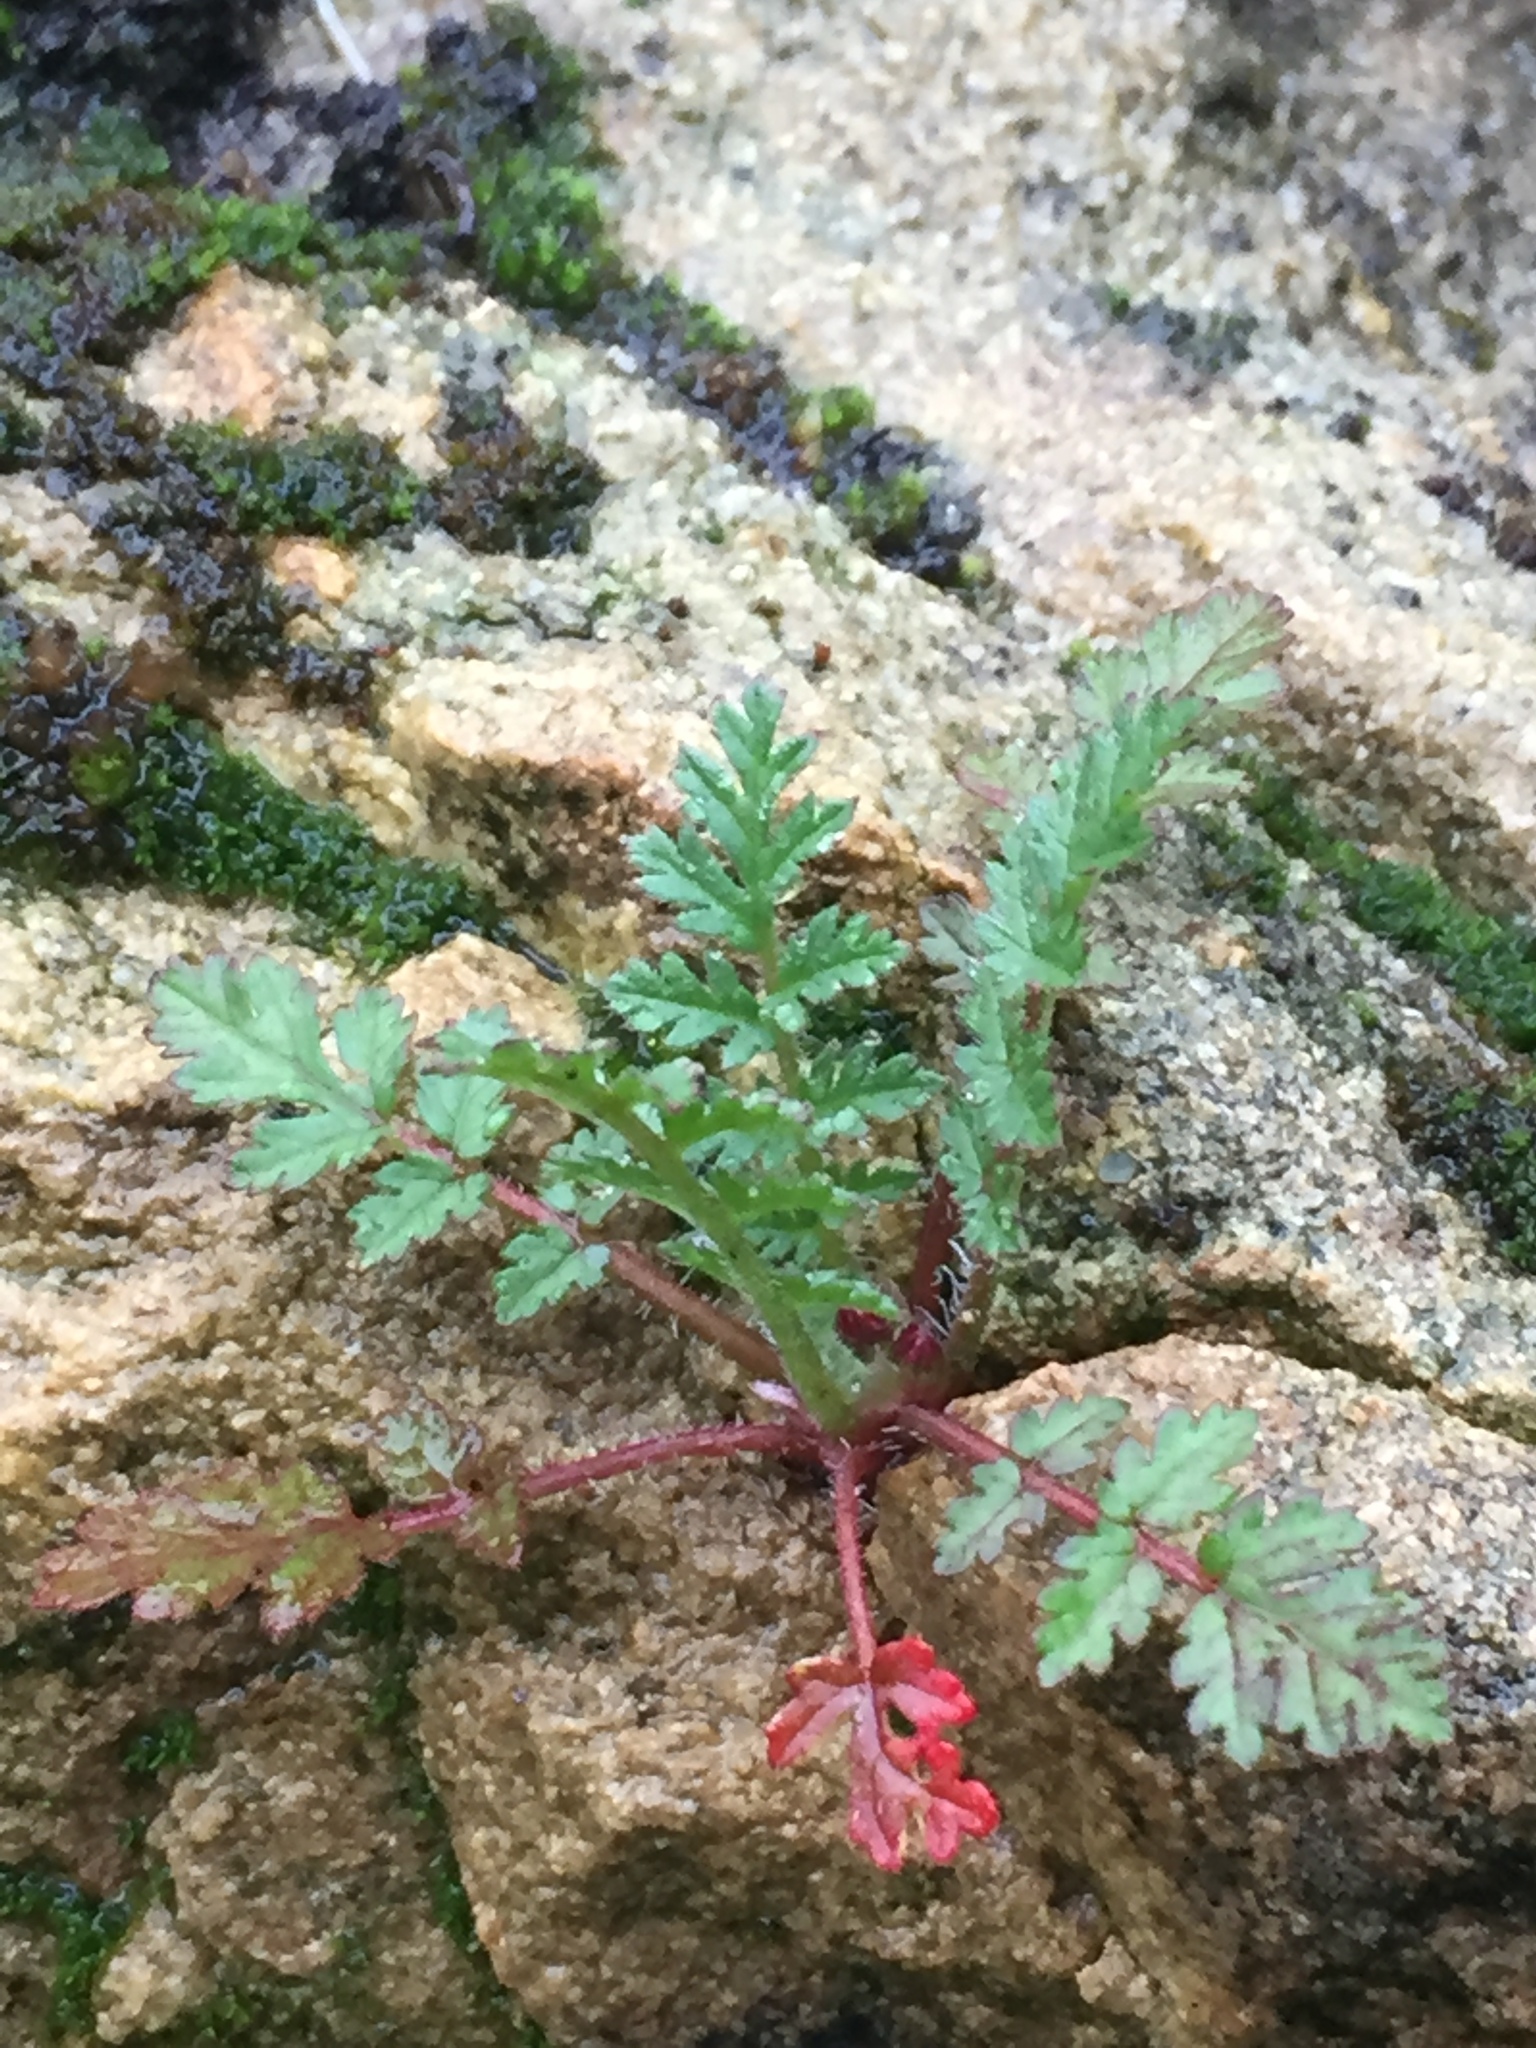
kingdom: Plantae
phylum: Tracheophyta
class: Magnoliopsida
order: Geraniales
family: Geraniaceae
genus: Erodium
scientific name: Erodium
